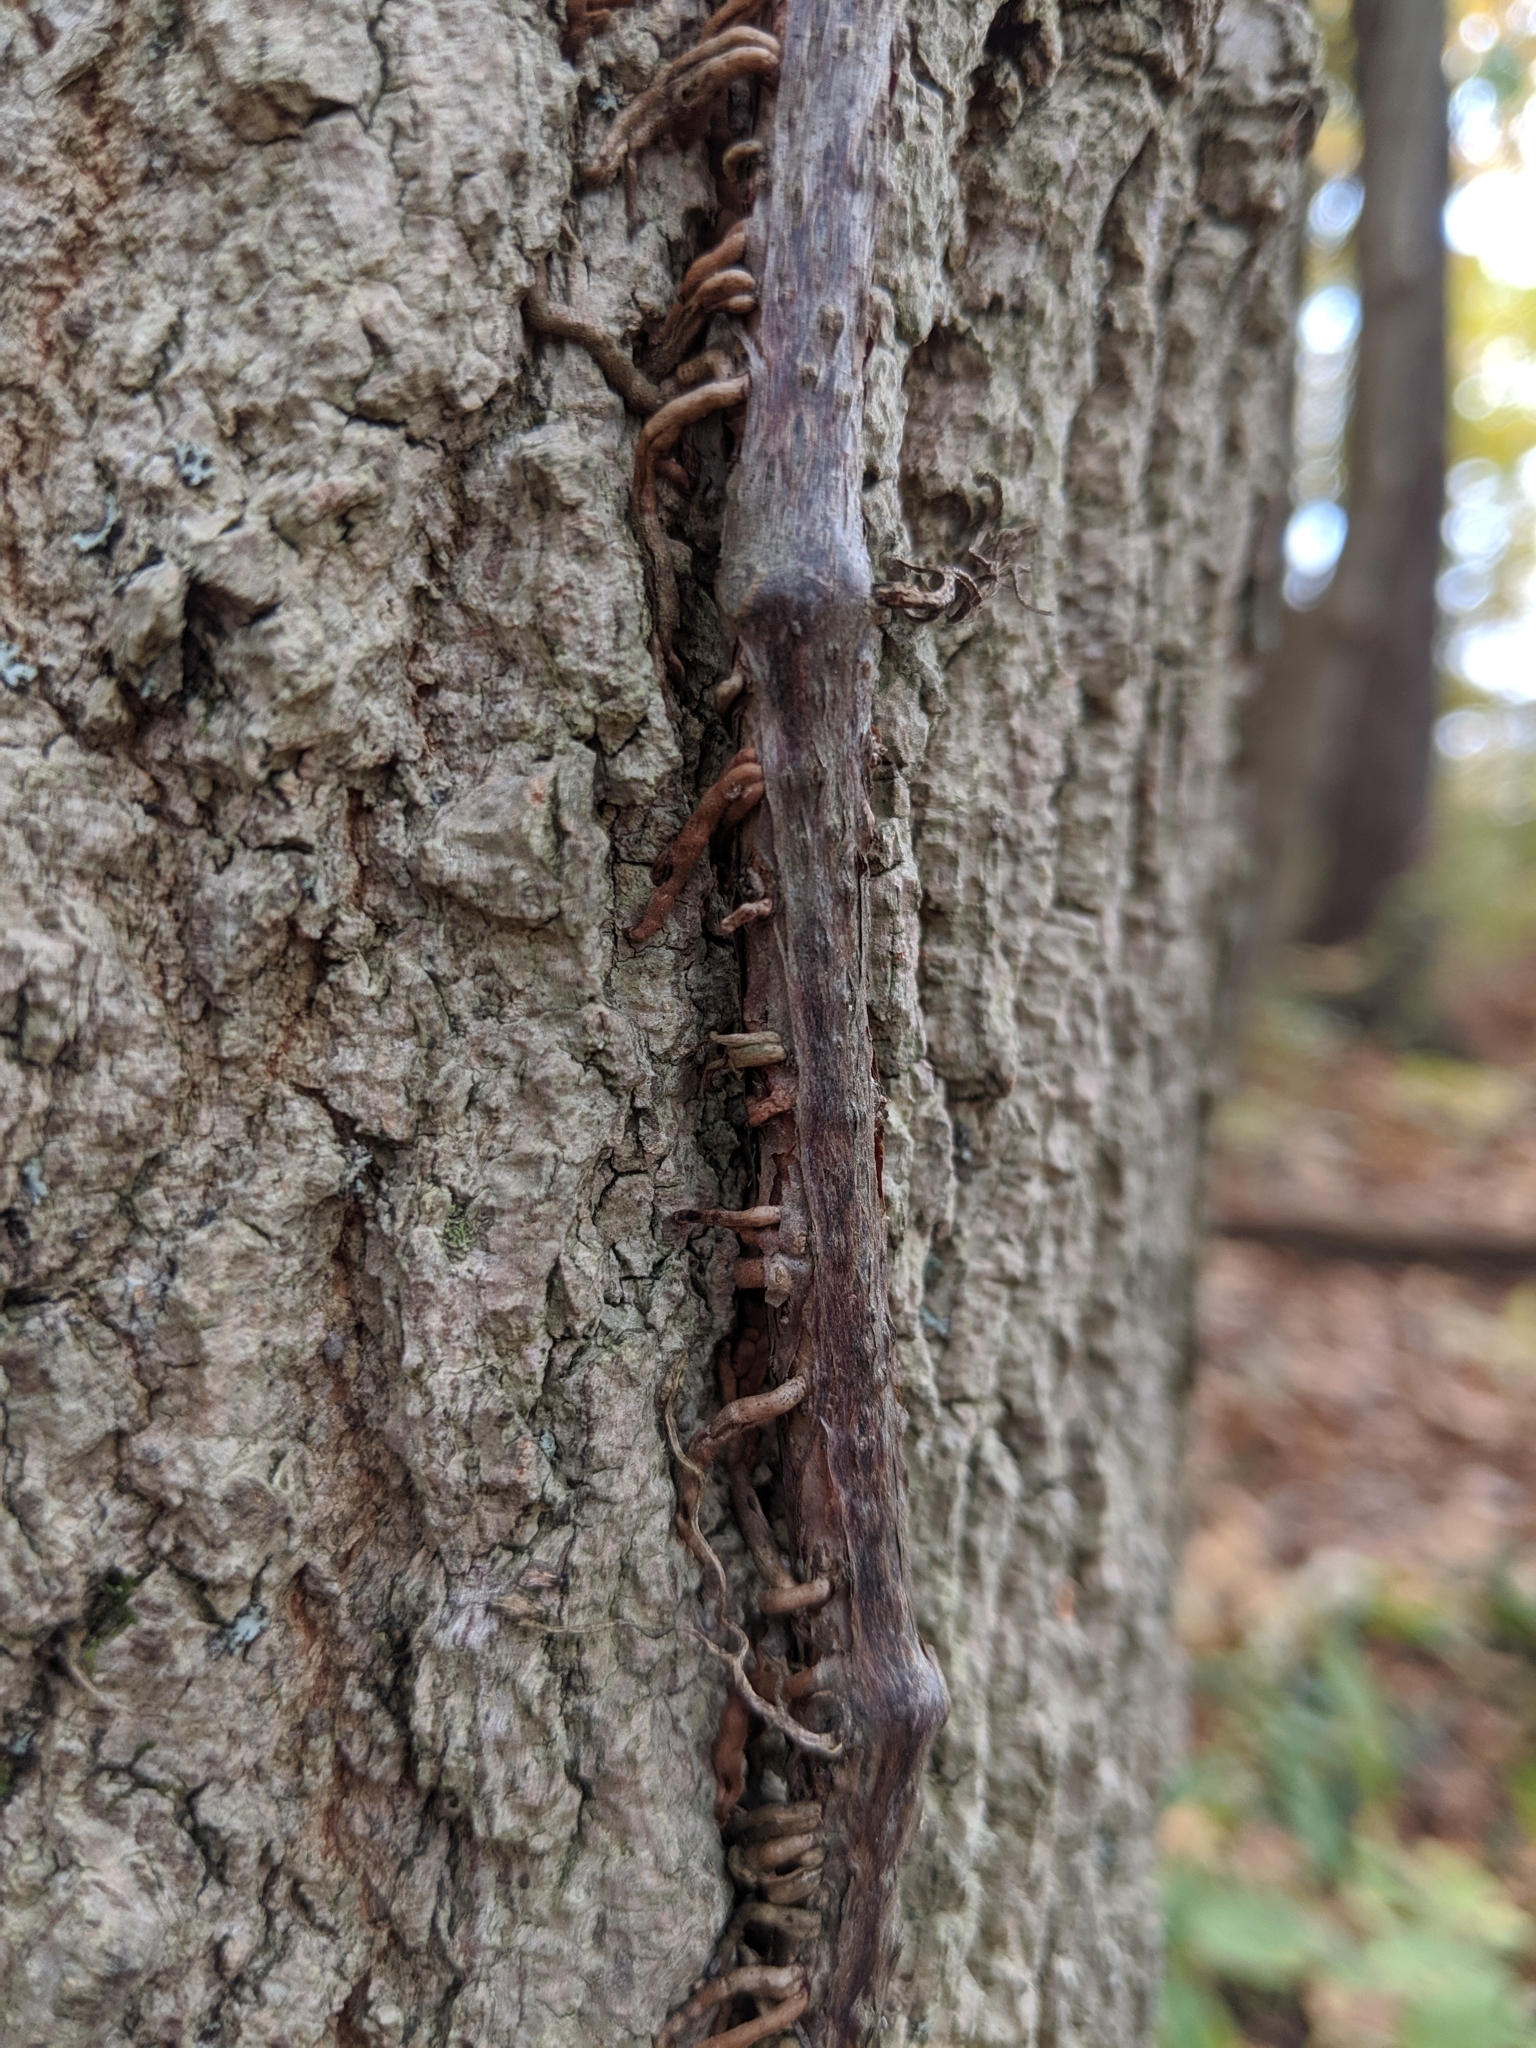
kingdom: Plantae
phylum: Tracheophyta
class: Magnoliopsida
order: Sapindales
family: Anacardiaceae
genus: Toxicodendron
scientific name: Toxicodendron radicans
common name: Poison ivy
